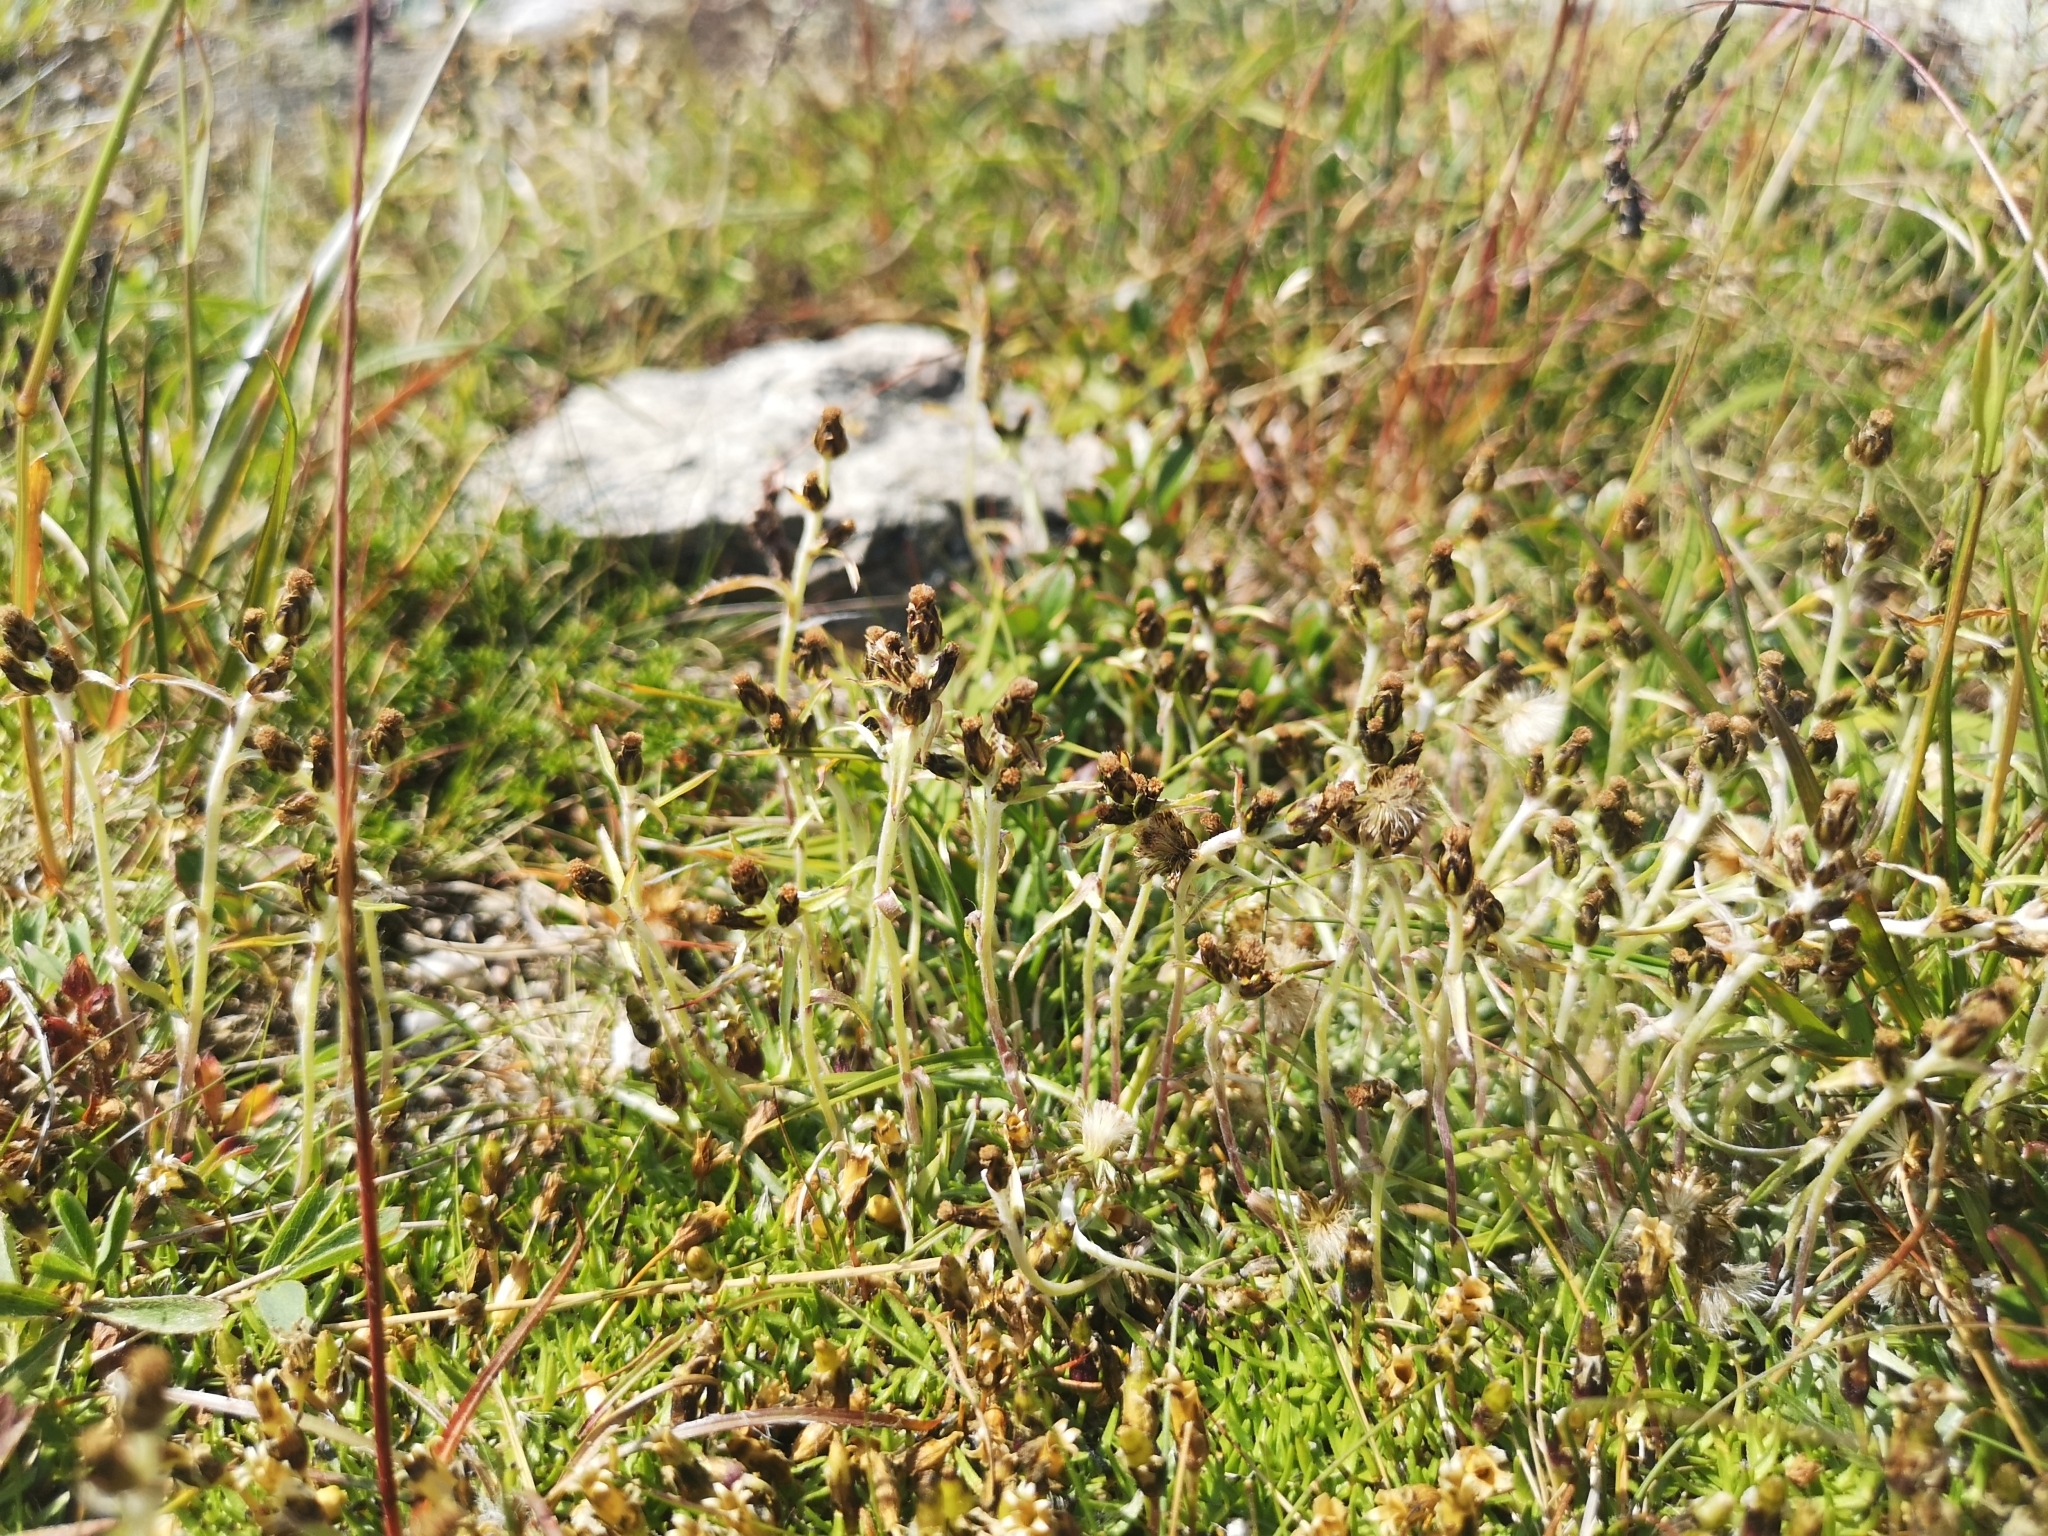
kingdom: Plantae
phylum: Tracheophyta
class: Magnoliopsida
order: Asterales
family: Asteraceae
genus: Omalotheca
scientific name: Omalotheca supina
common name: Alpine arctic-cudweed
